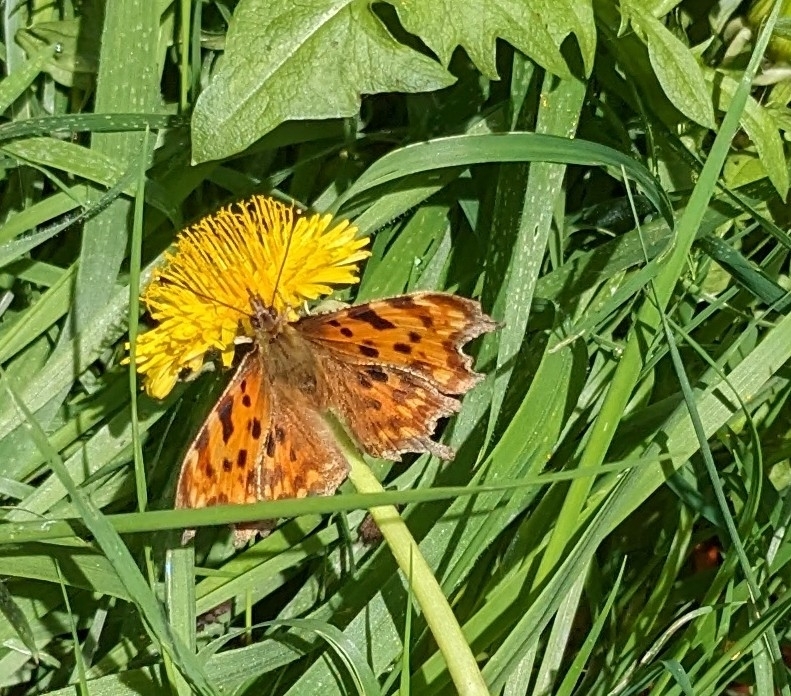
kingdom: Animalia
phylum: Arthropoda
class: Insecta
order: Lepidoptera
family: Nymphalidae
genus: Polygonia
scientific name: Polygonia c-album
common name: Comma
